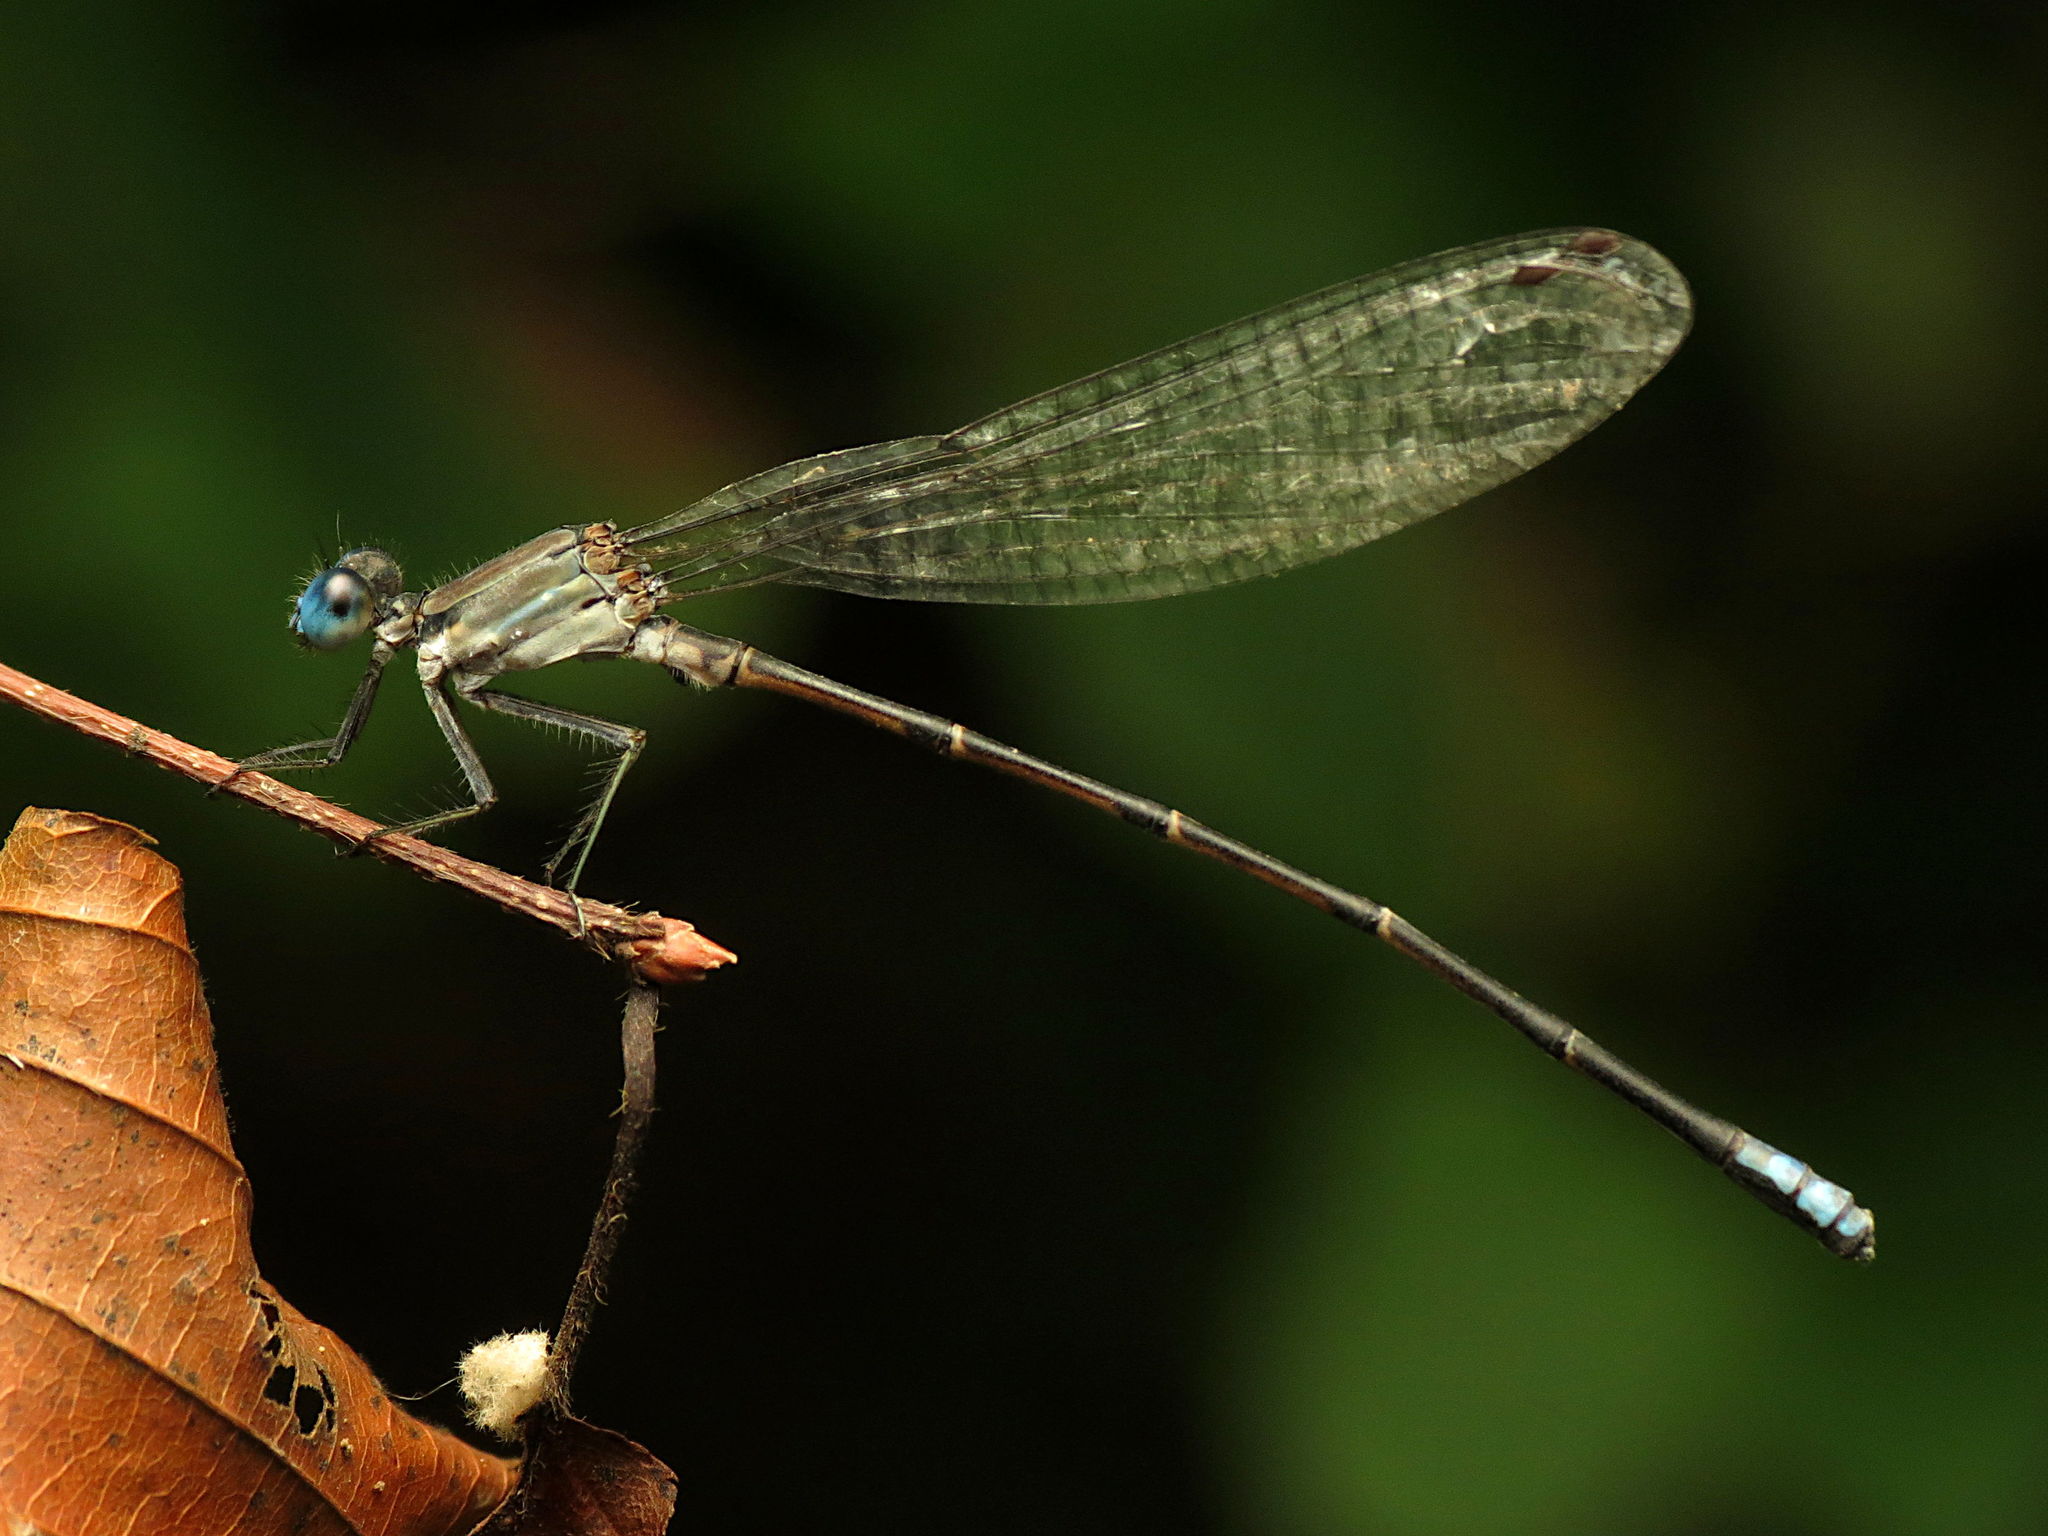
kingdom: Animalia
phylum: Arthropoda
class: Insecta
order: Odonata
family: Coenagrionidae
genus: Argia
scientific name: Argia apicalis
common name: Blue-fronted dancer
